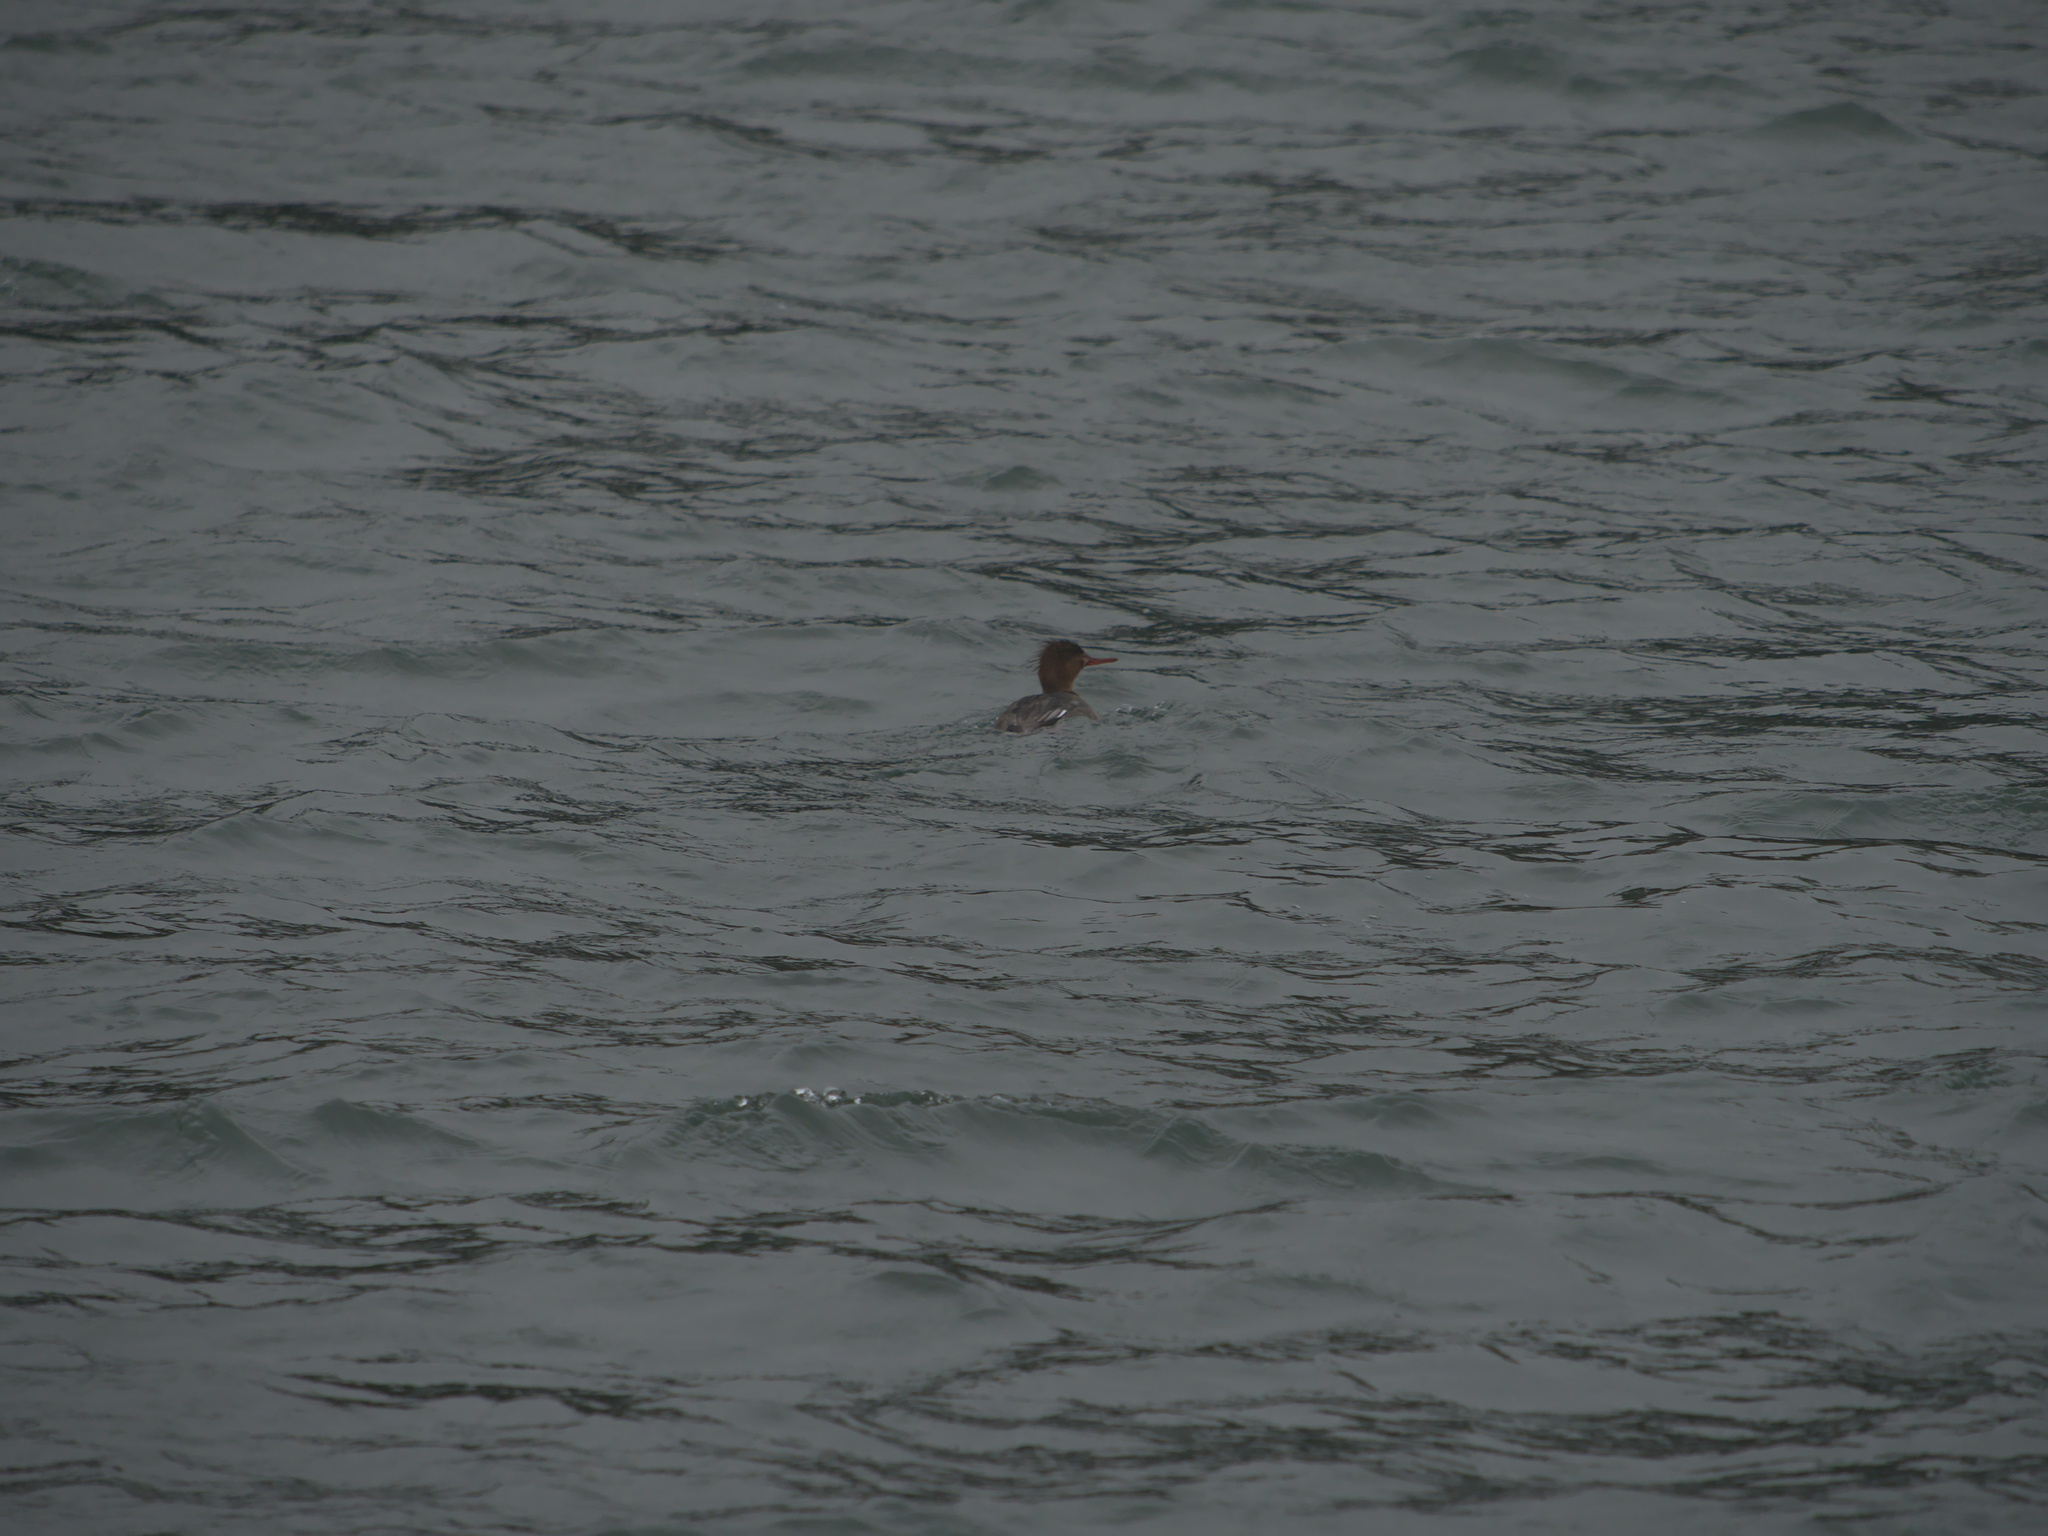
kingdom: Animalia
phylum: Chordata
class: Aves
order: Anseriformes
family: Anatidae
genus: Mergus
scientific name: Mergus serrator
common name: Red-breasted merganser
